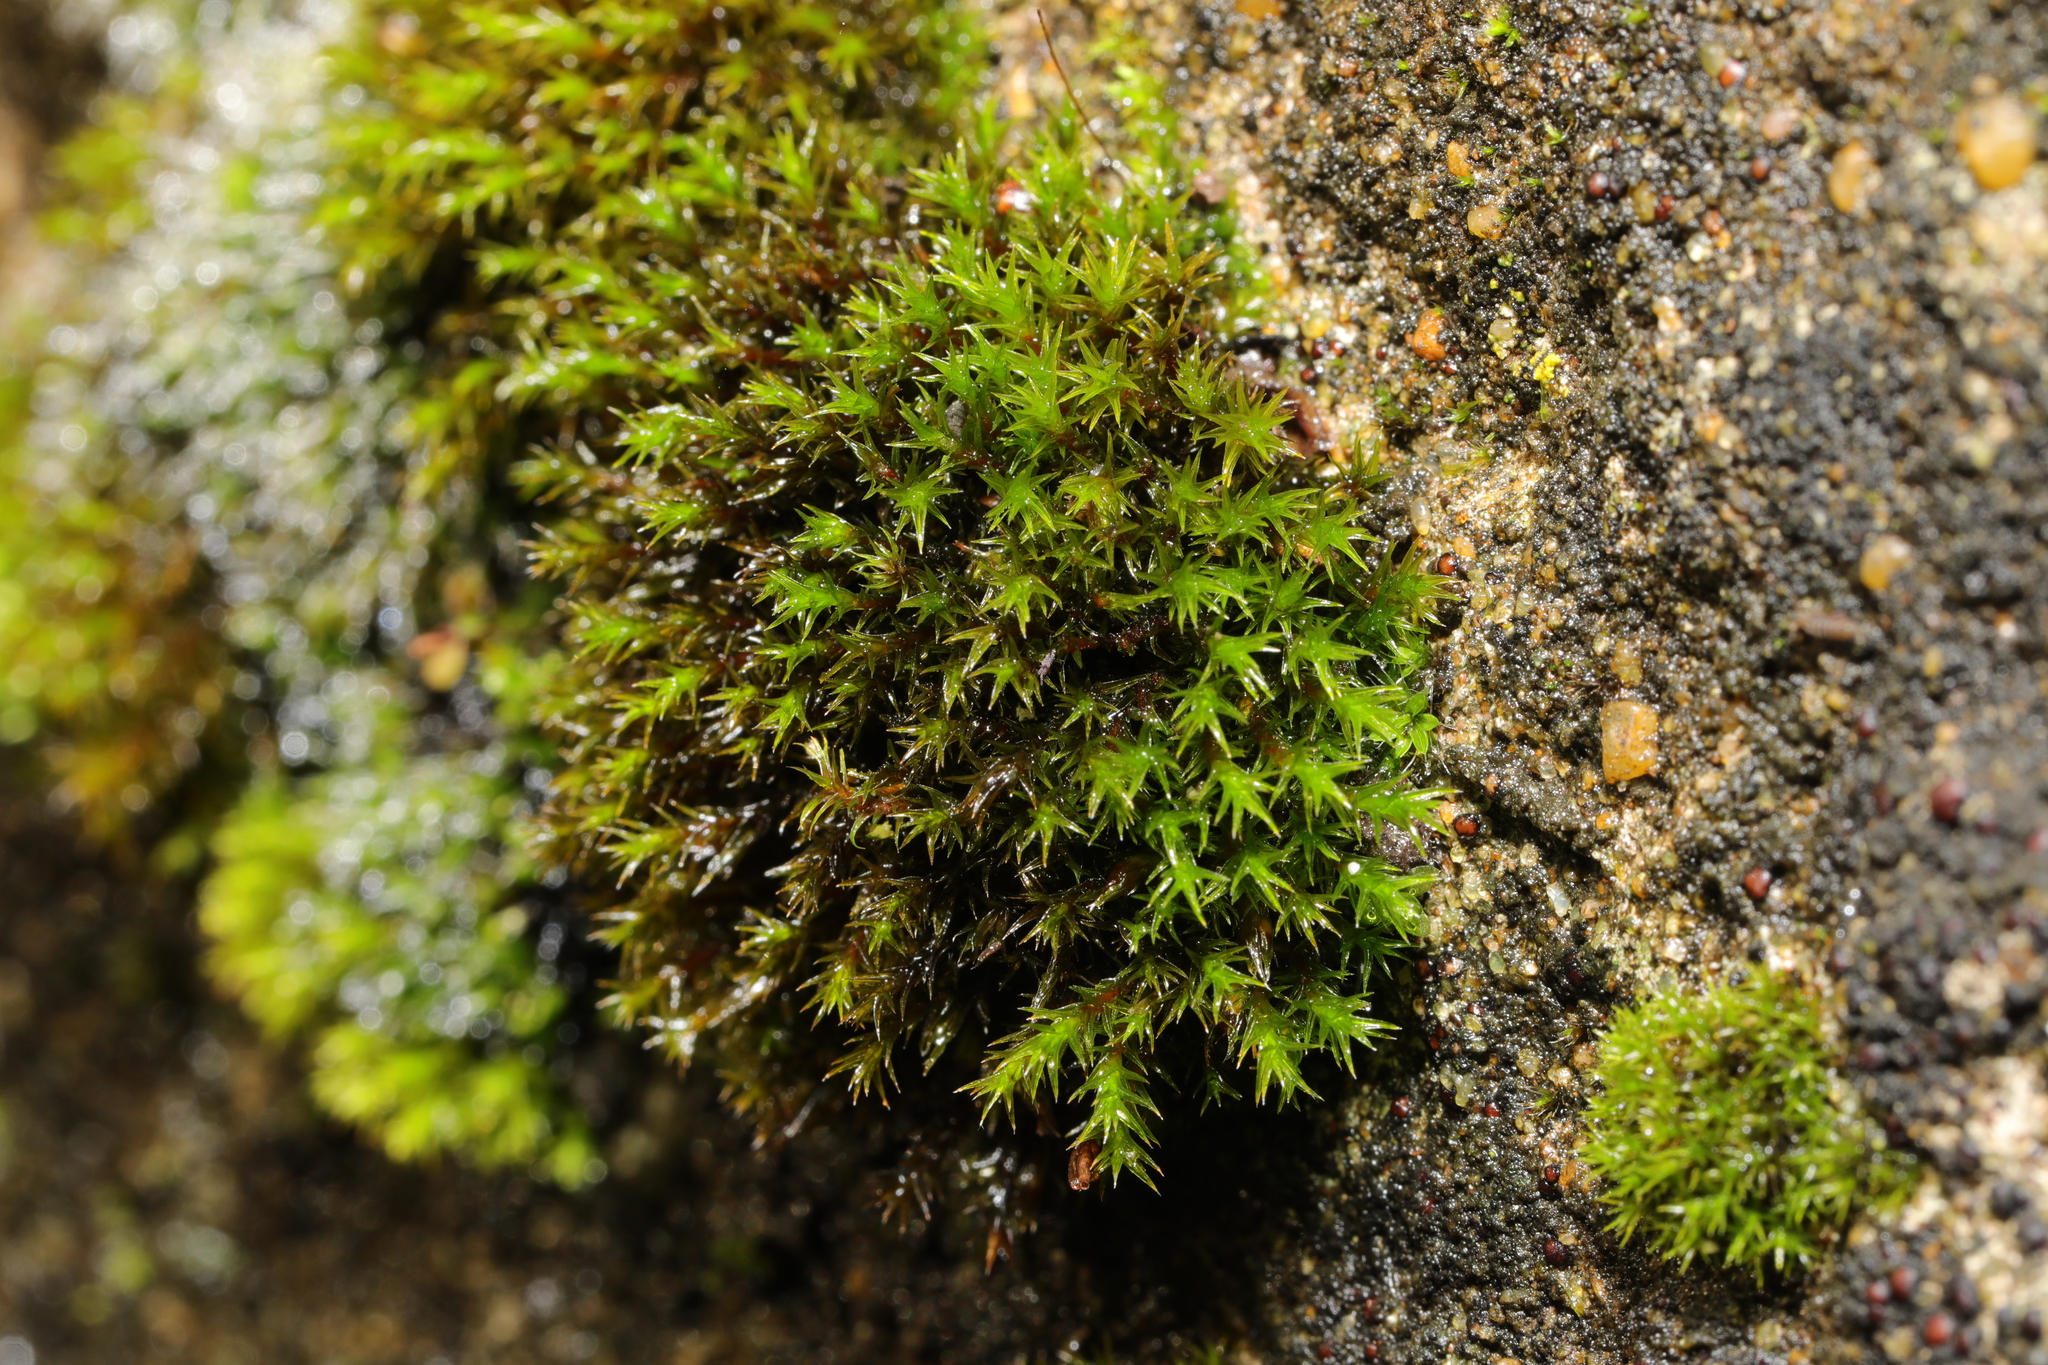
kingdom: Plantae
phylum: Bryophyta
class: Bryopsida
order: Orthotrichales
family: Orthotrichaceae
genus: Orthotrichum
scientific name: Orthotrichum anomalum
